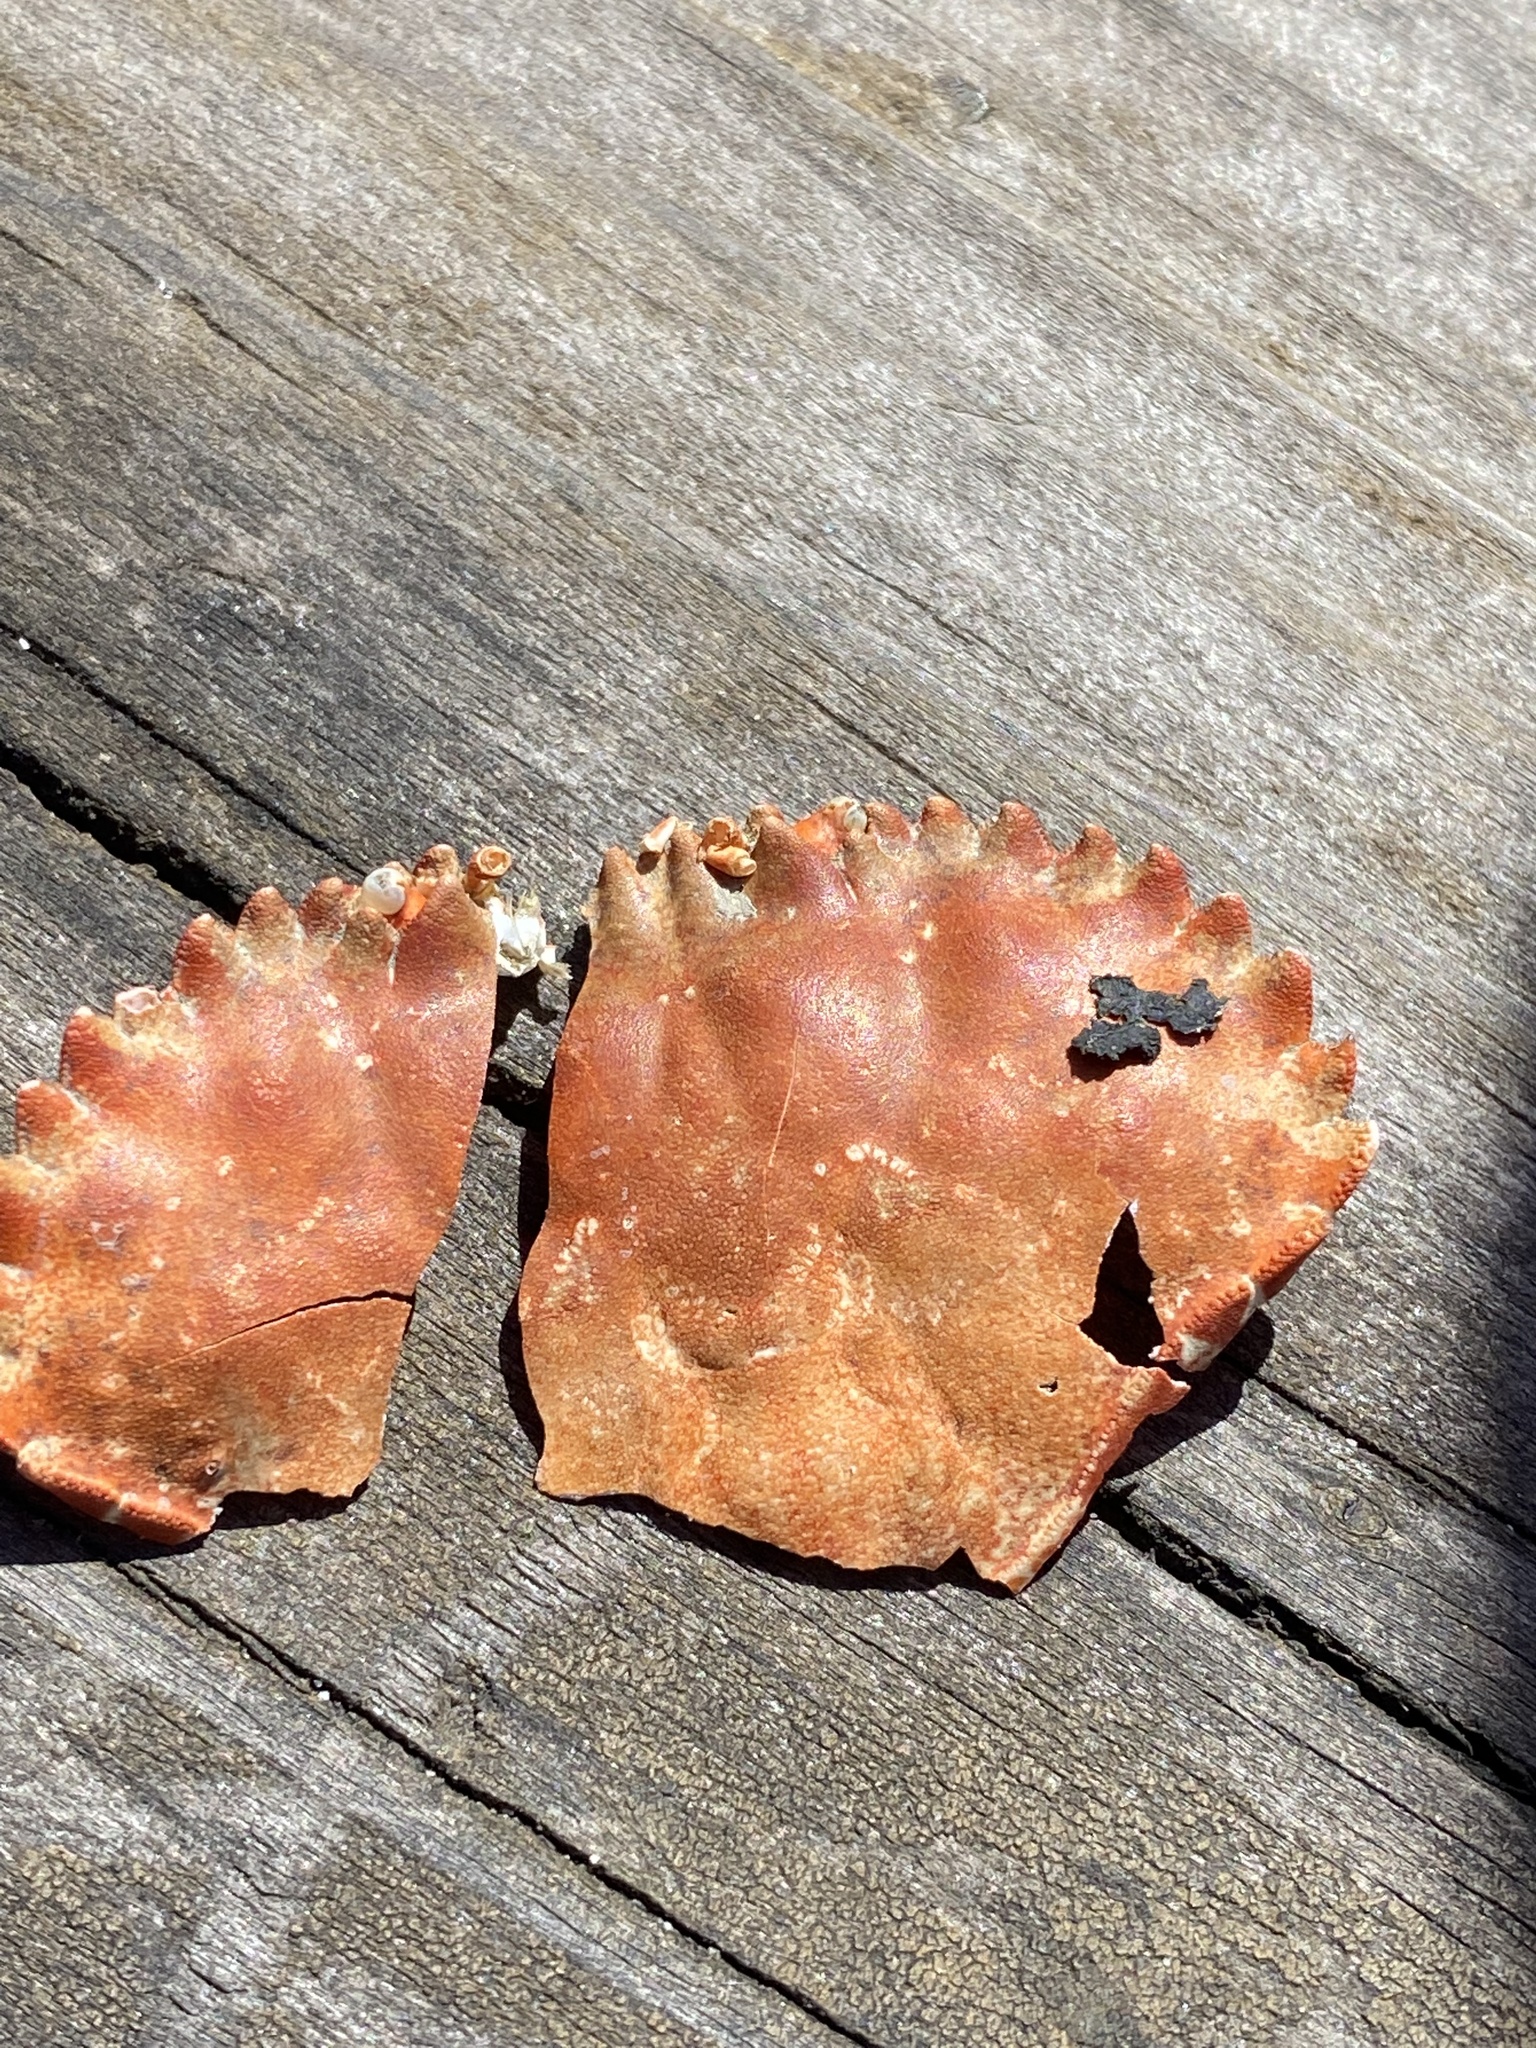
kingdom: Animalia
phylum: Arthropoda
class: Malacostraca
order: Decapoda
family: Cancridae
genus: Romaleon
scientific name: Romaleon antennarium
